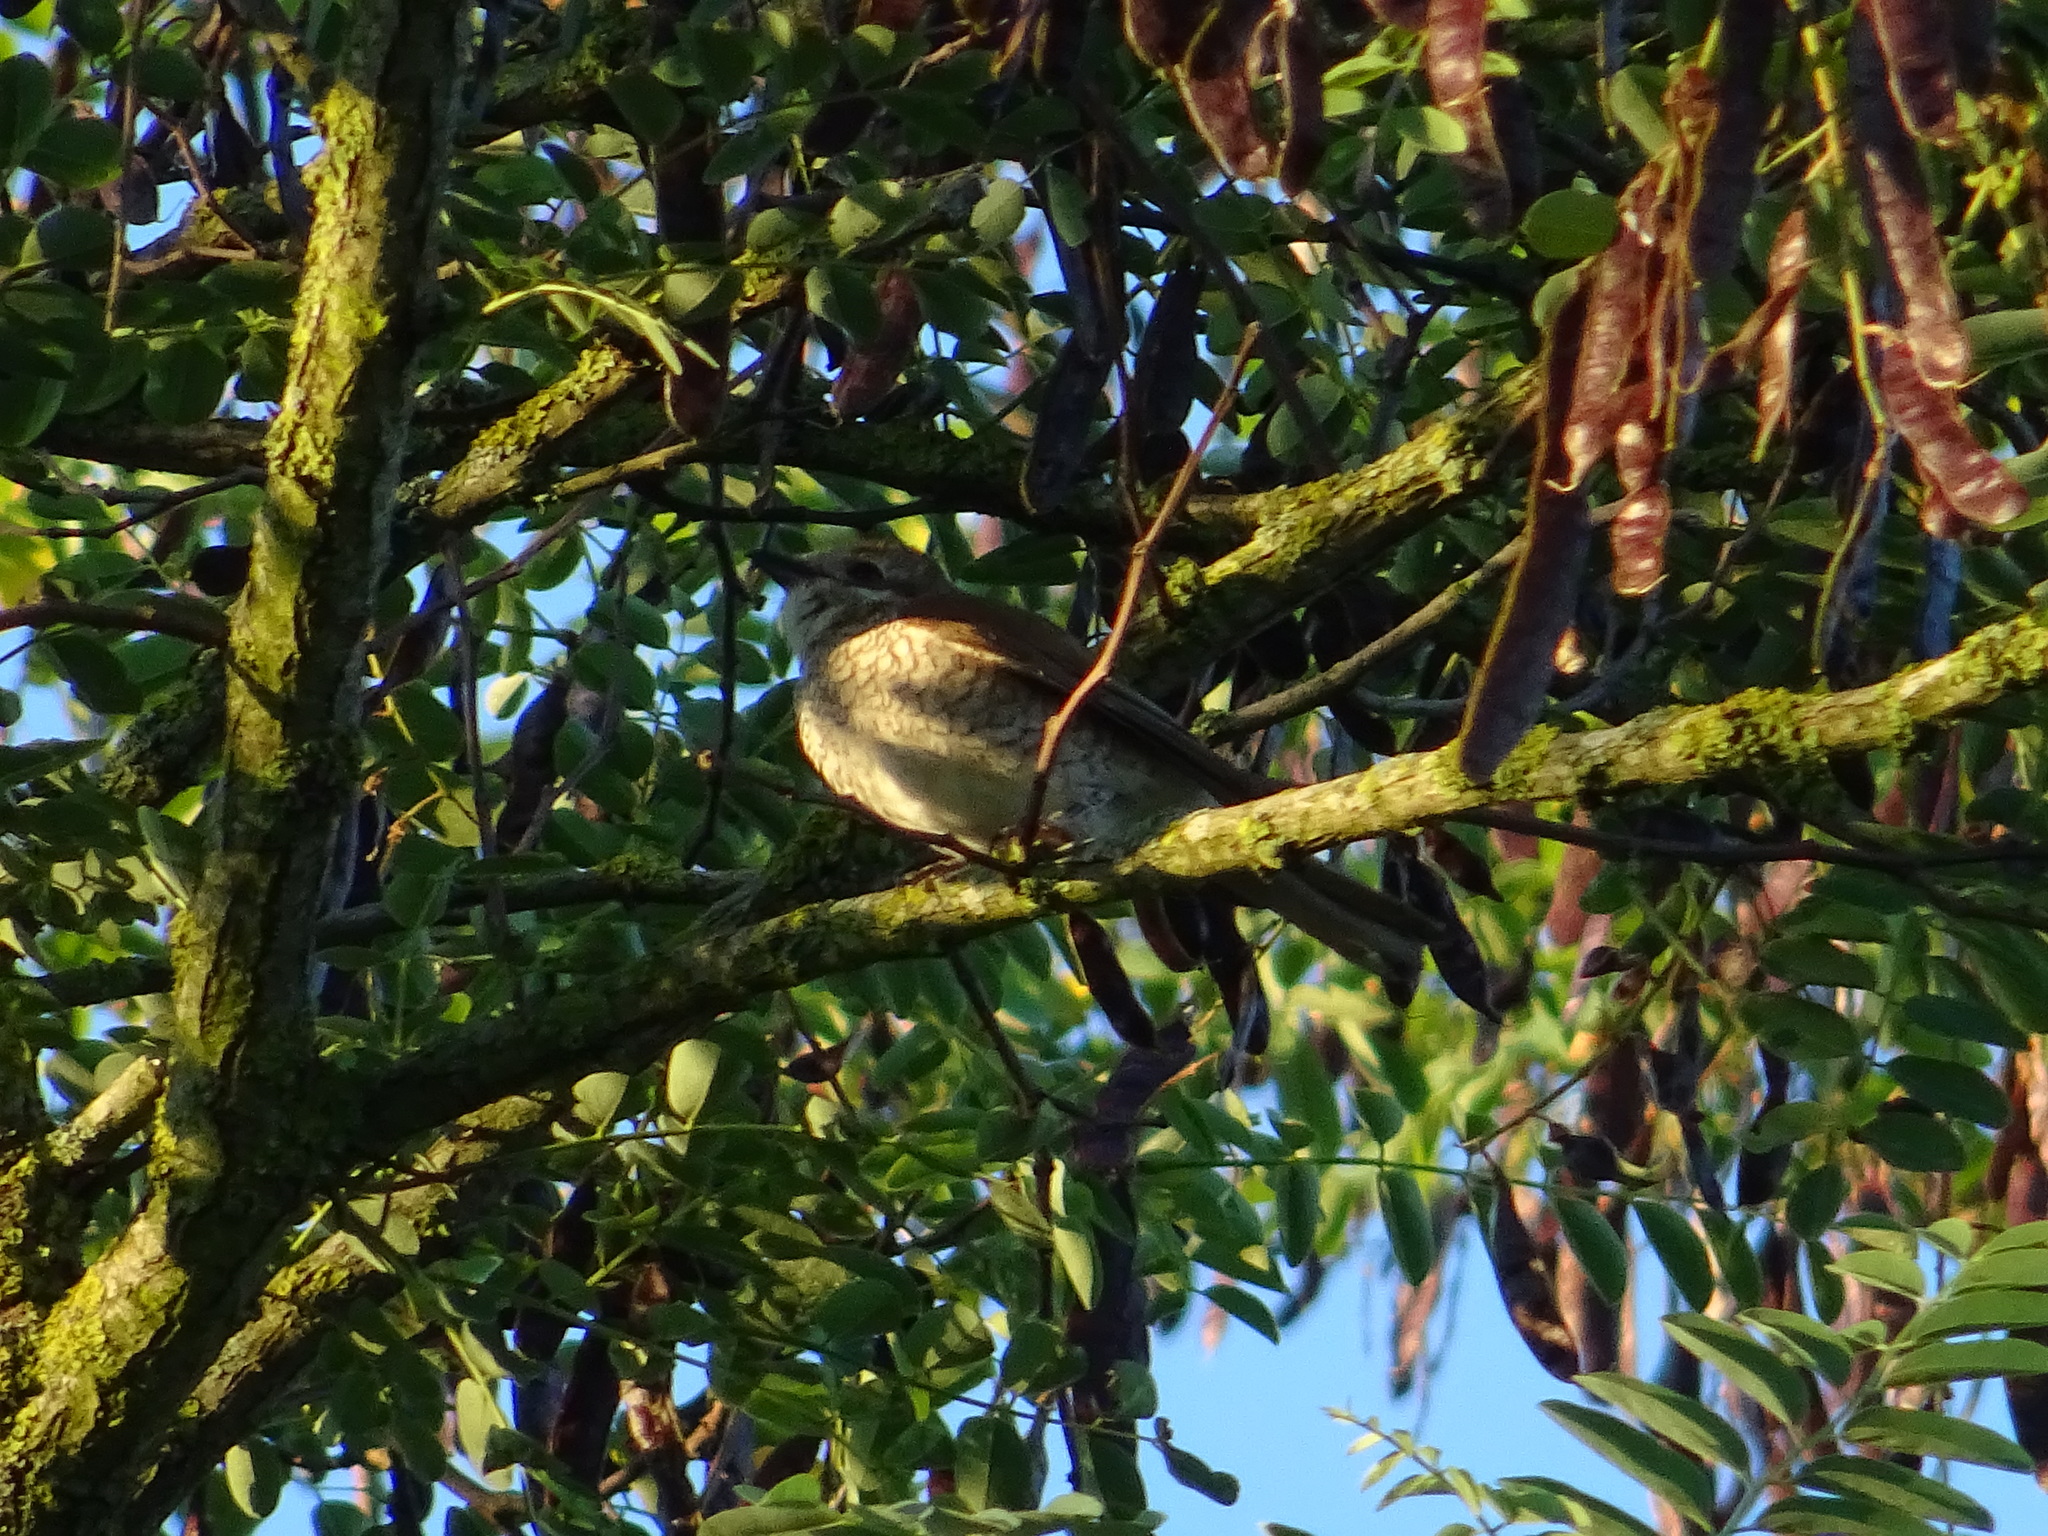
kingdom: Animalia
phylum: Chordata
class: Aves
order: Passeriformes
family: Laniidae
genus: Lanius
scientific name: Lanius collurio
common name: Red-backed shrike
